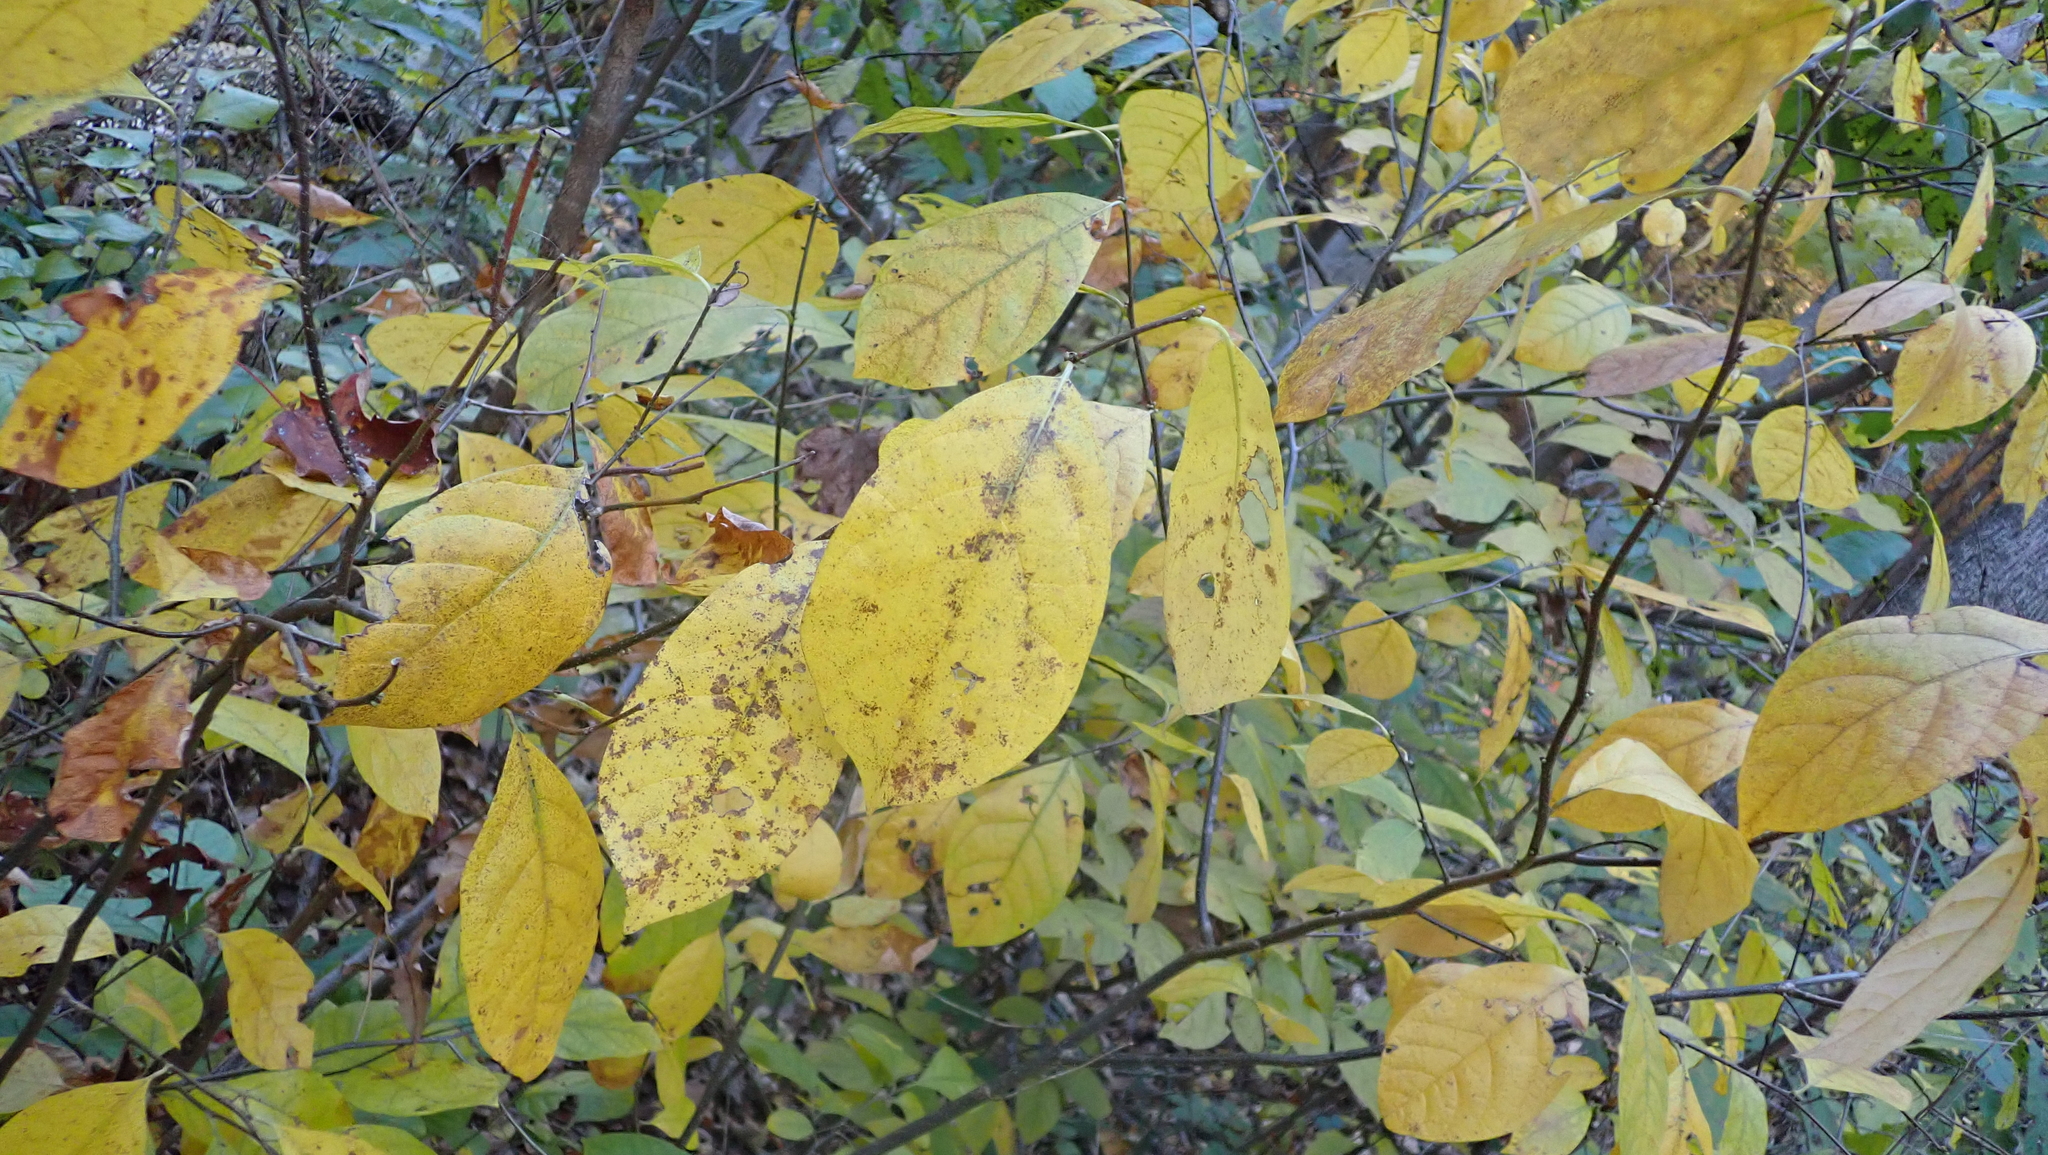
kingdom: Plantae
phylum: Tracheophyta
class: Magnoliopsida
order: Laurales
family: Lauraceae
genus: Lindera
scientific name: Lindera benzoin
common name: Spicebush
